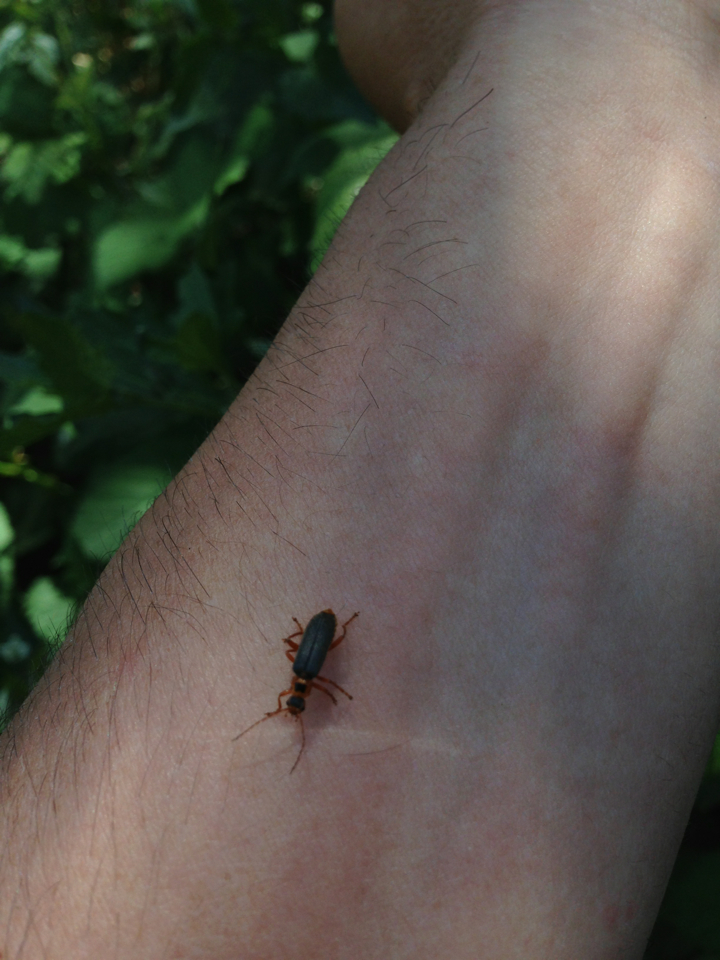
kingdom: Animalia
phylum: Arthropoda
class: Insecta
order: Coleoptera
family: Cantharidae
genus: Cultellunguis
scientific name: Cultellunguis americanus
